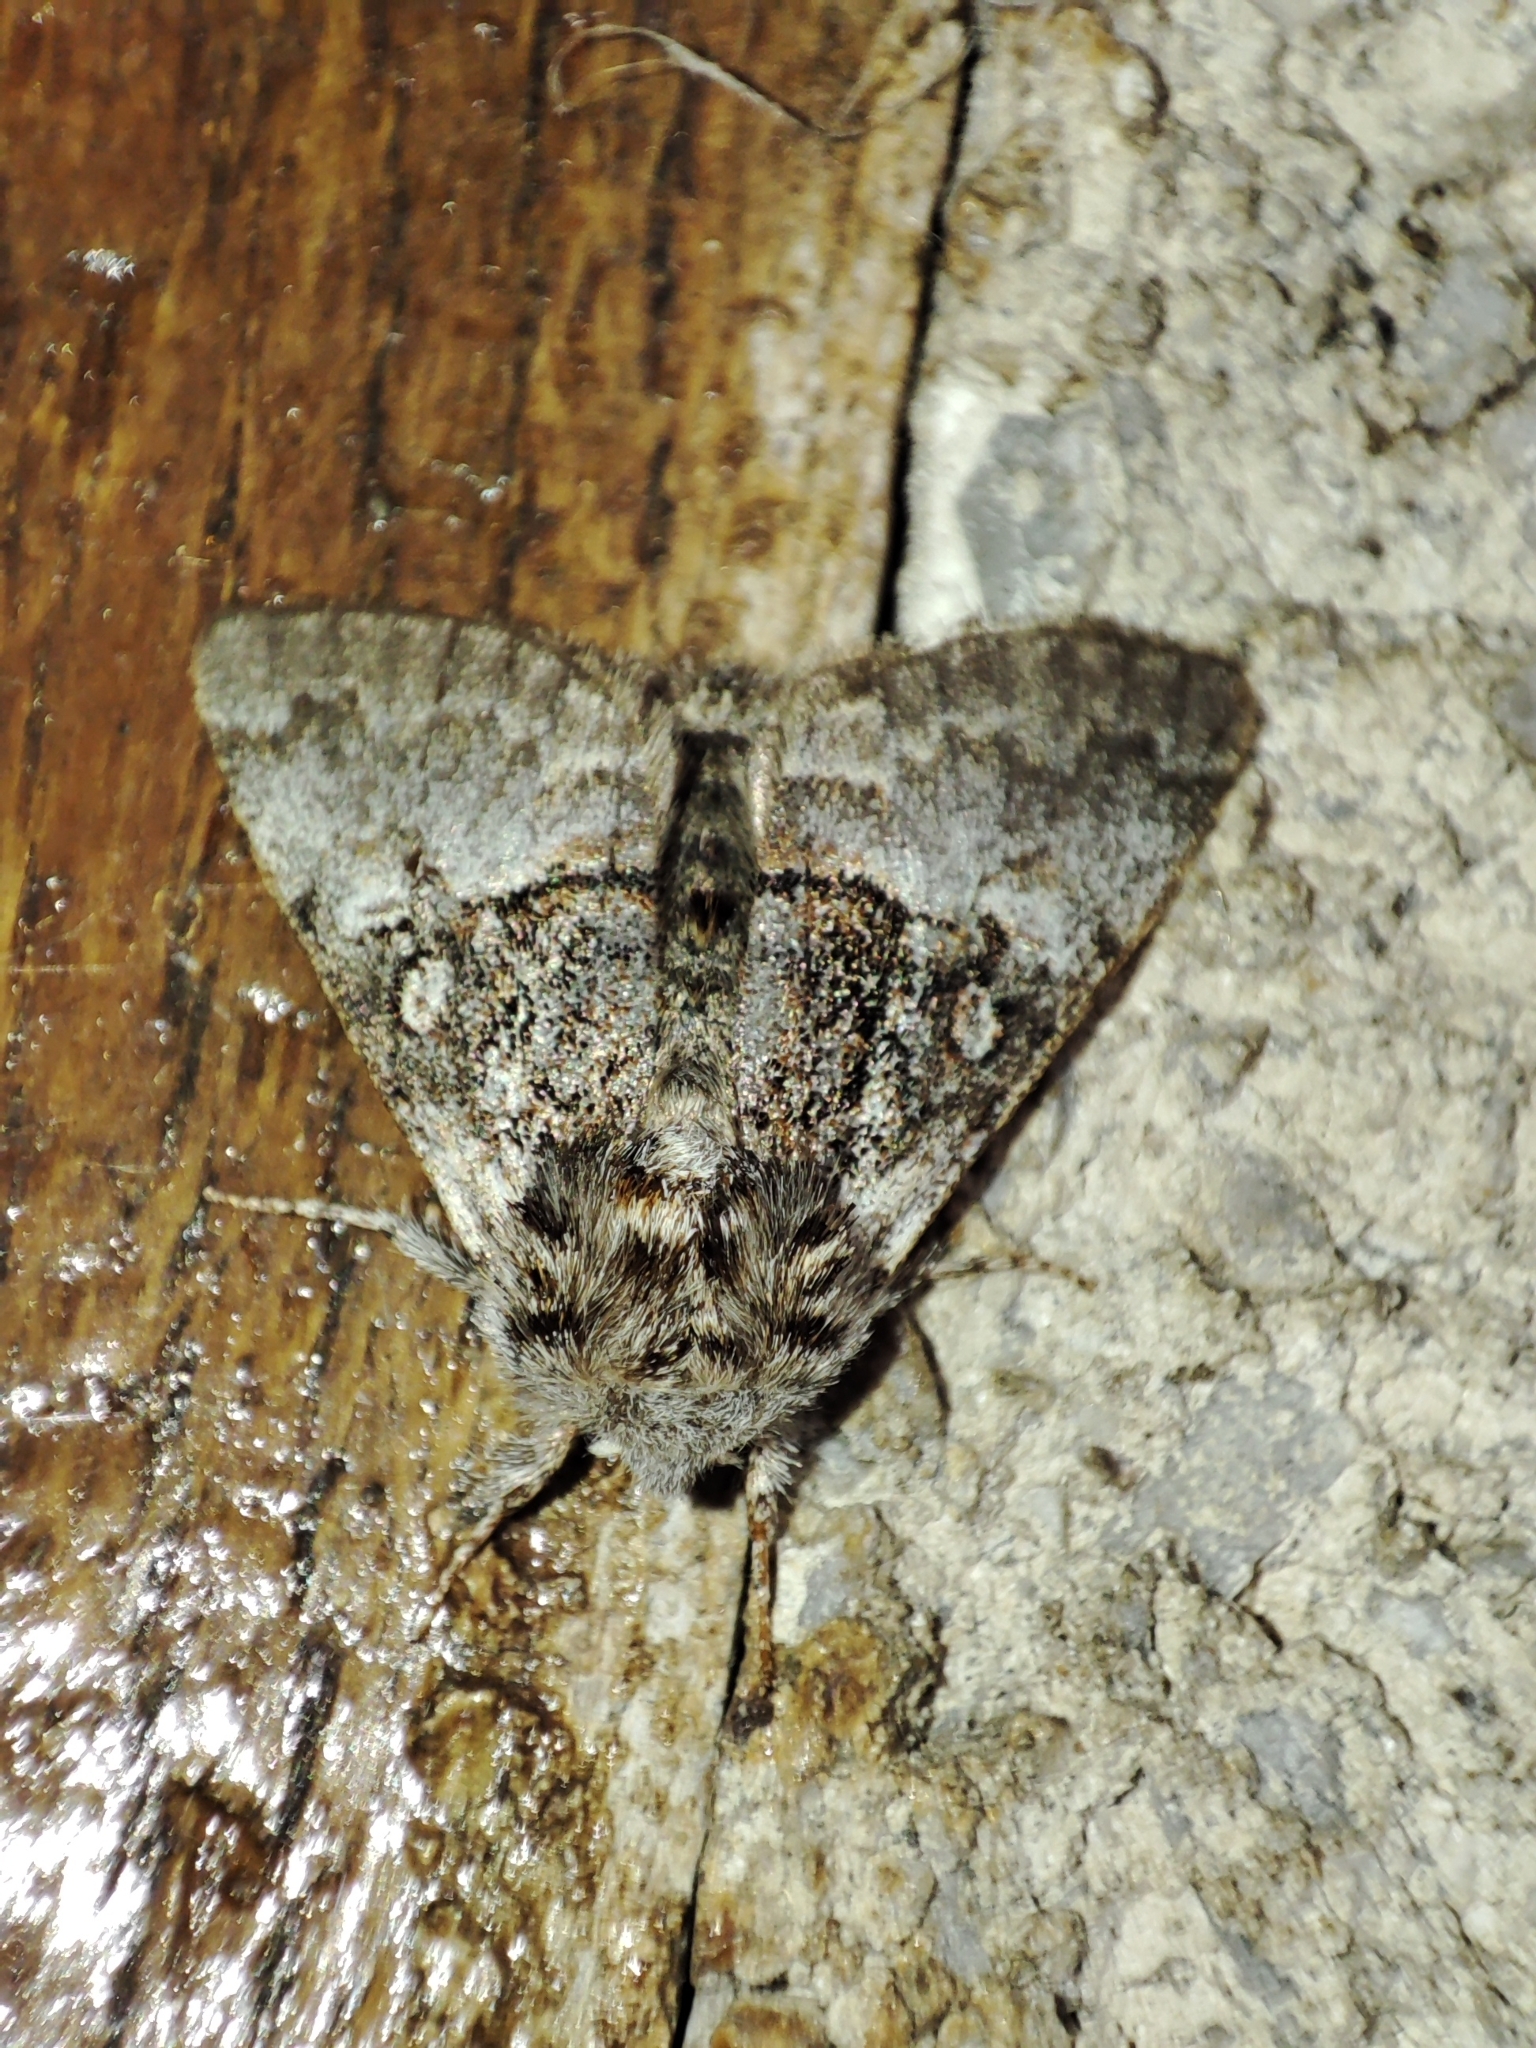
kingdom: Animalia
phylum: Arthropoda
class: Insecta
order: Lepidoptera
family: Noctuidae
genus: Colocasia
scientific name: Colocasia coryli
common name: Nut-tree tussock
